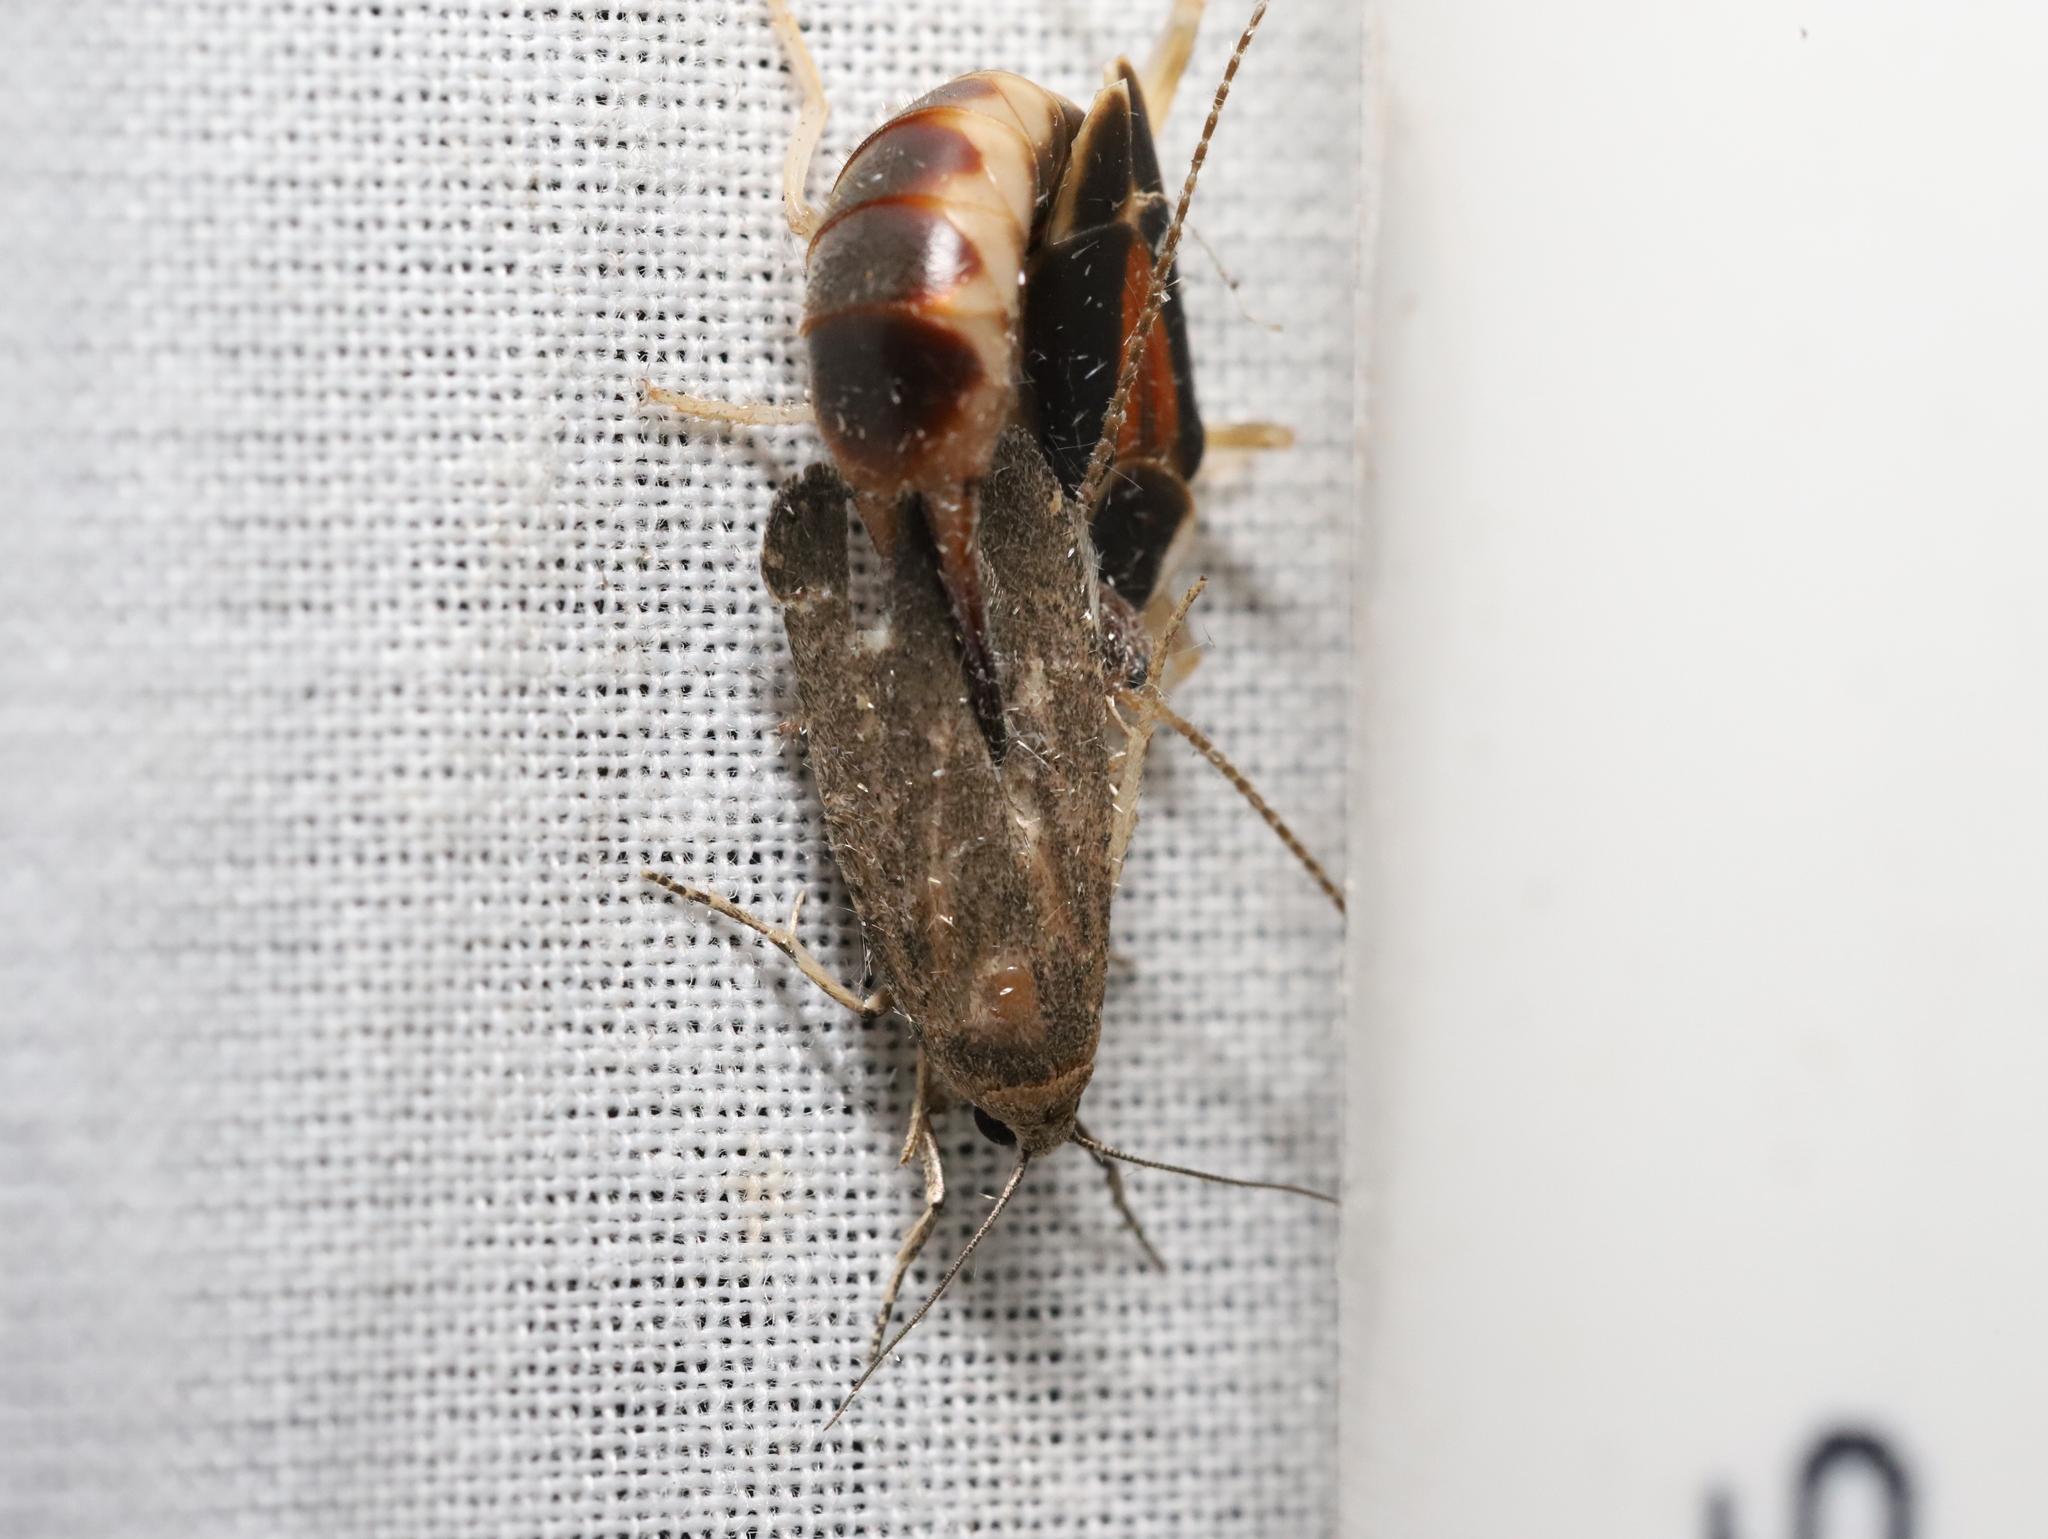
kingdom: Animalia
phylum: Arthropoda
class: Insecta
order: Dermaptera
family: Labiduridae
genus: Labidura
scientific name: Labidura riparia
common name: Striped earwig
